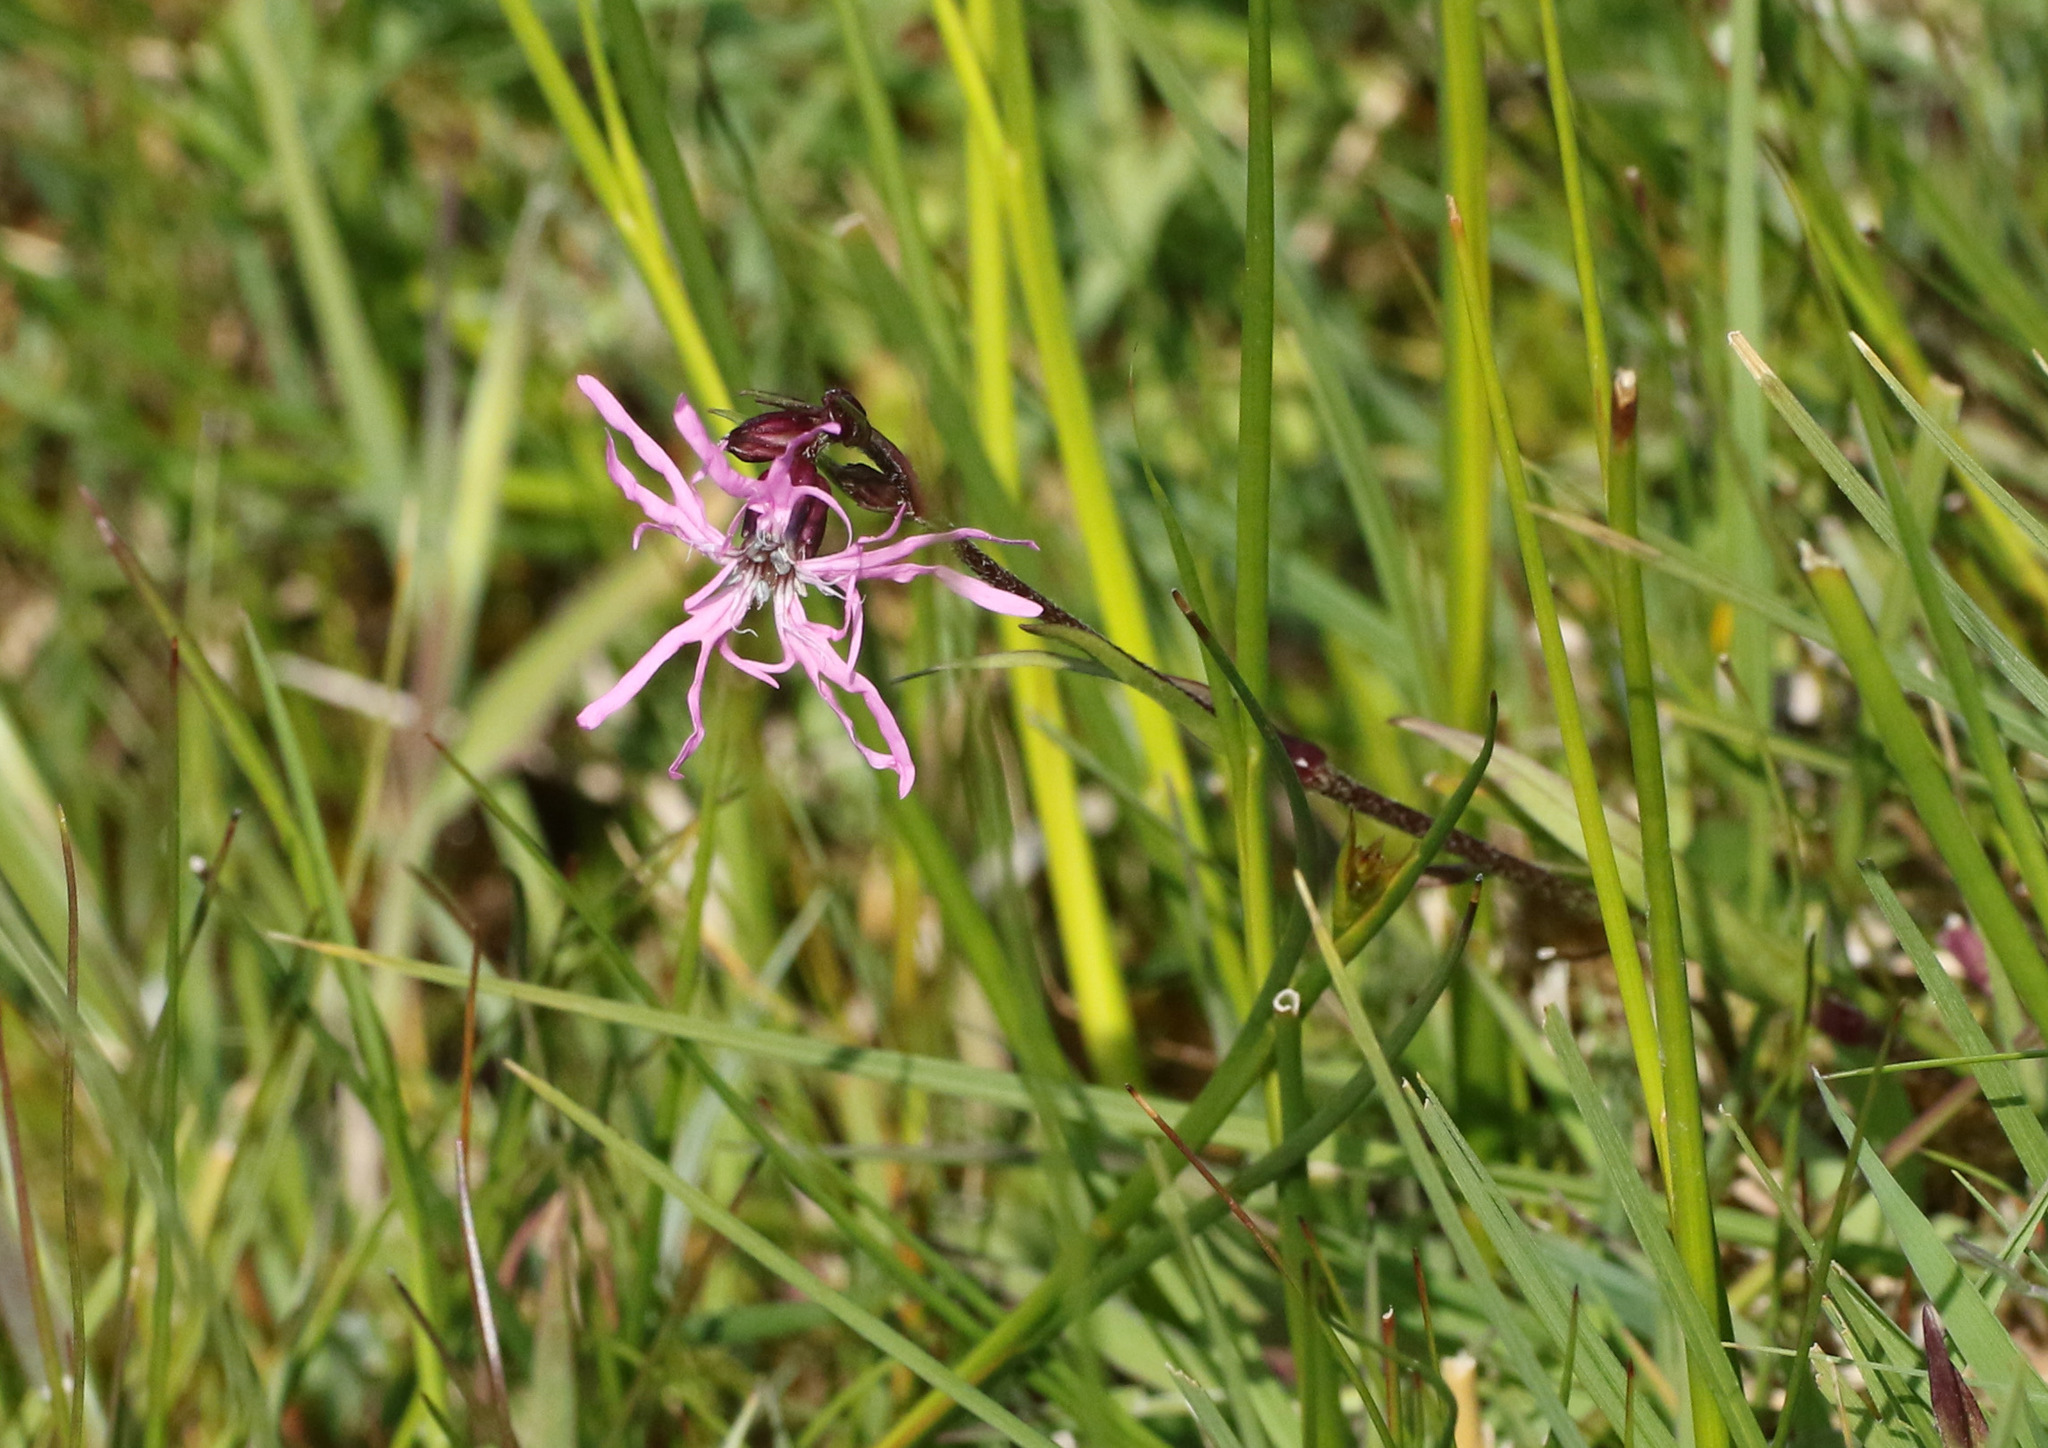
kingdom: Plantae
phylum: Tracheophyta
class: Magnoliopsida
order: Caryophyllales
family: Caryophyllaceae
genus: Silene
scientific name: Silene flos-cuculi
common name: Ragged-robin
